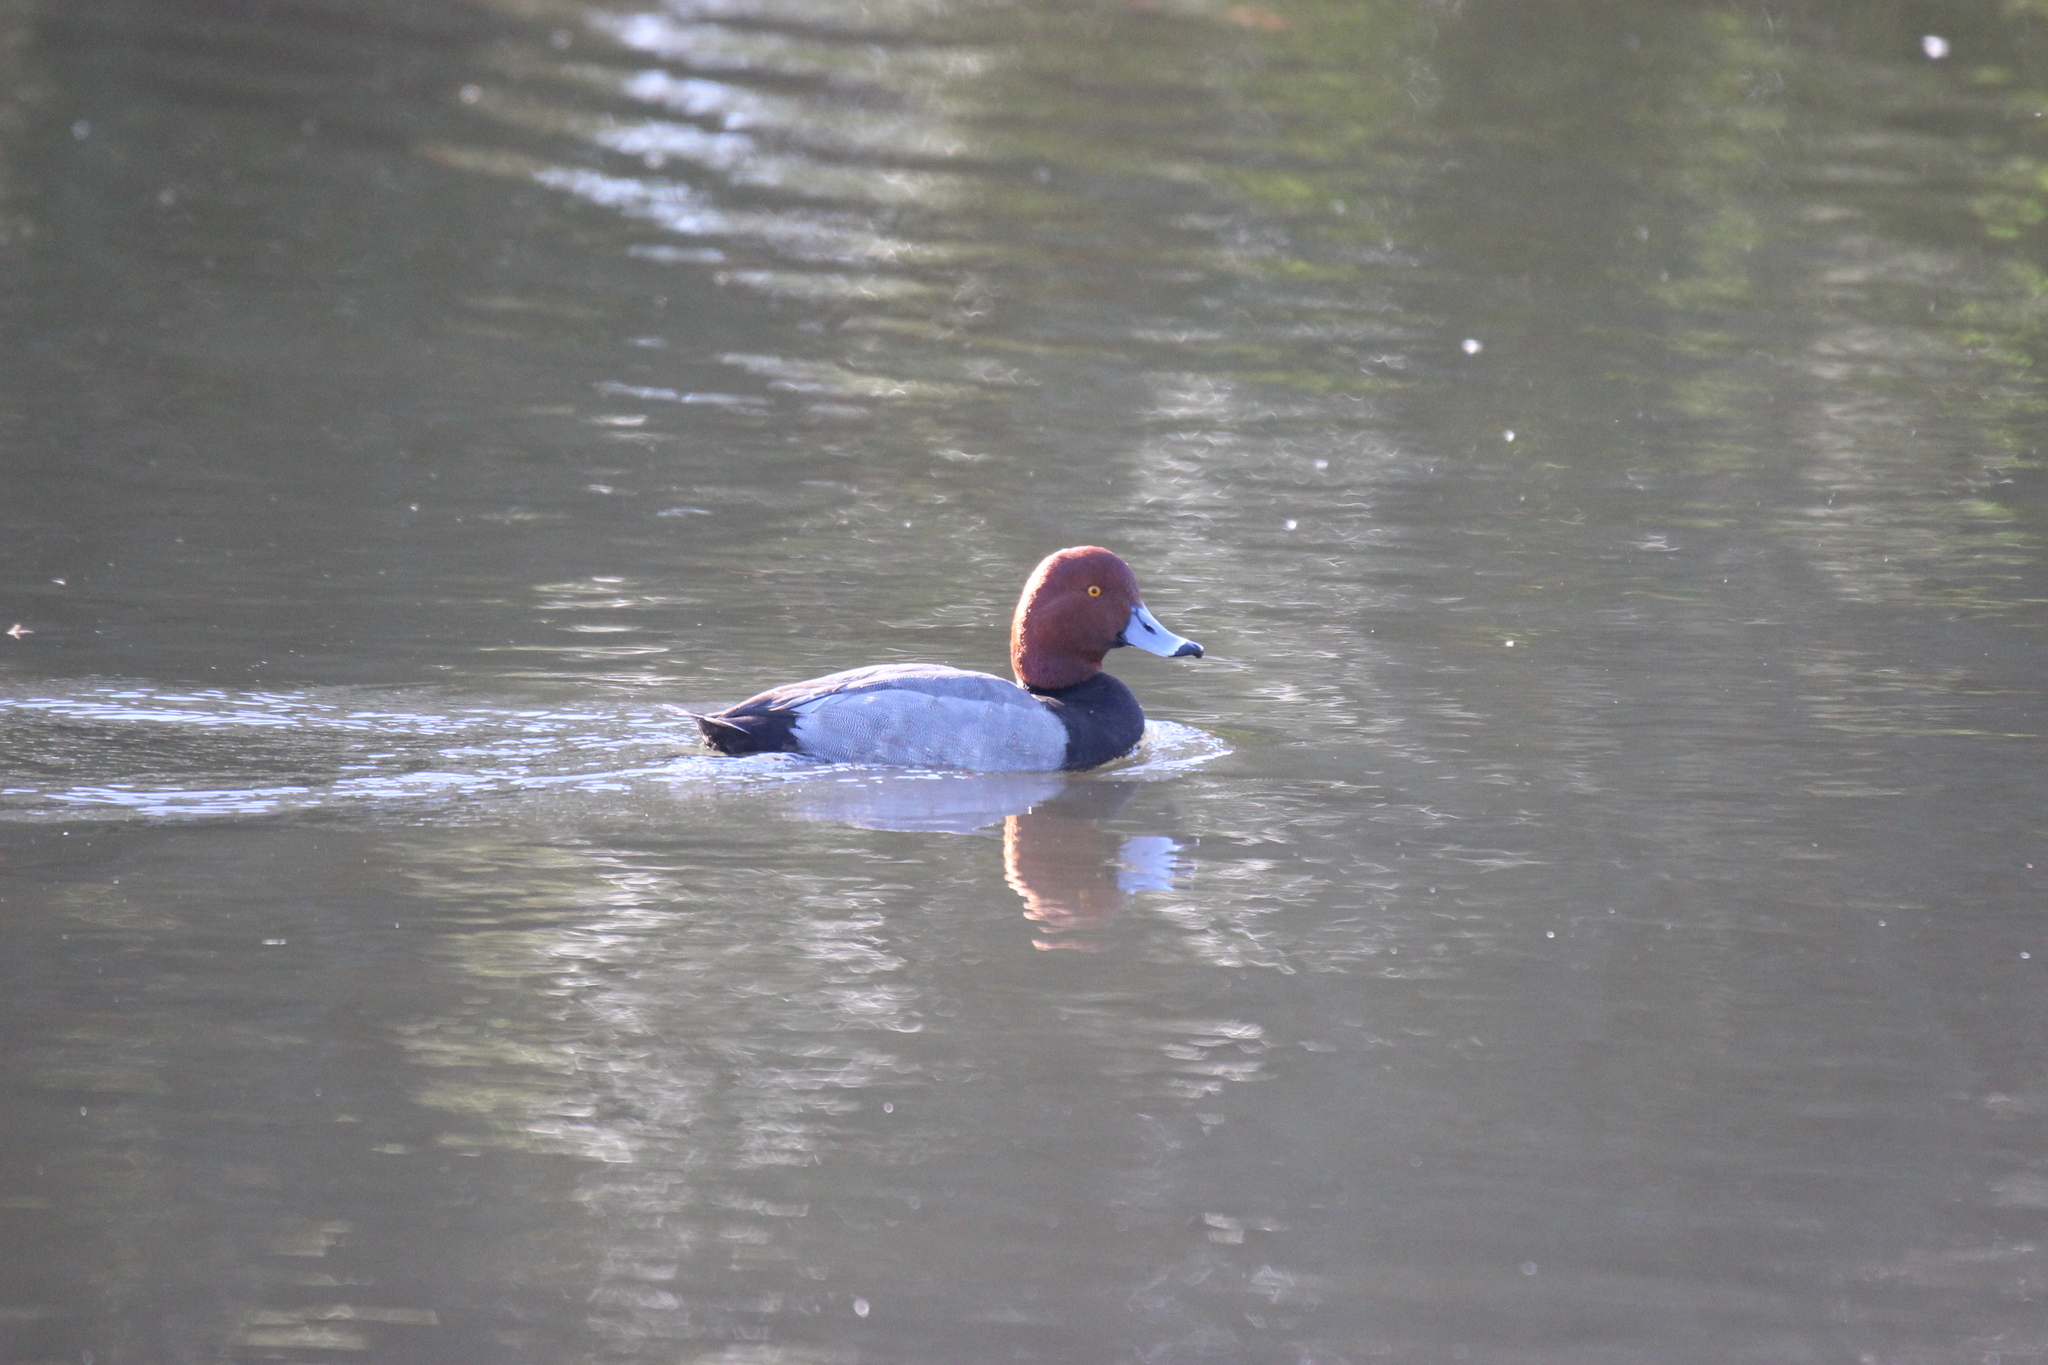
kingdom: Animalia
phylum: Chordata
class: Aves
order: Anseriformes
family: Anatidae
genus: Aythya
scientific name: Aythya americana
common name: Redhead
